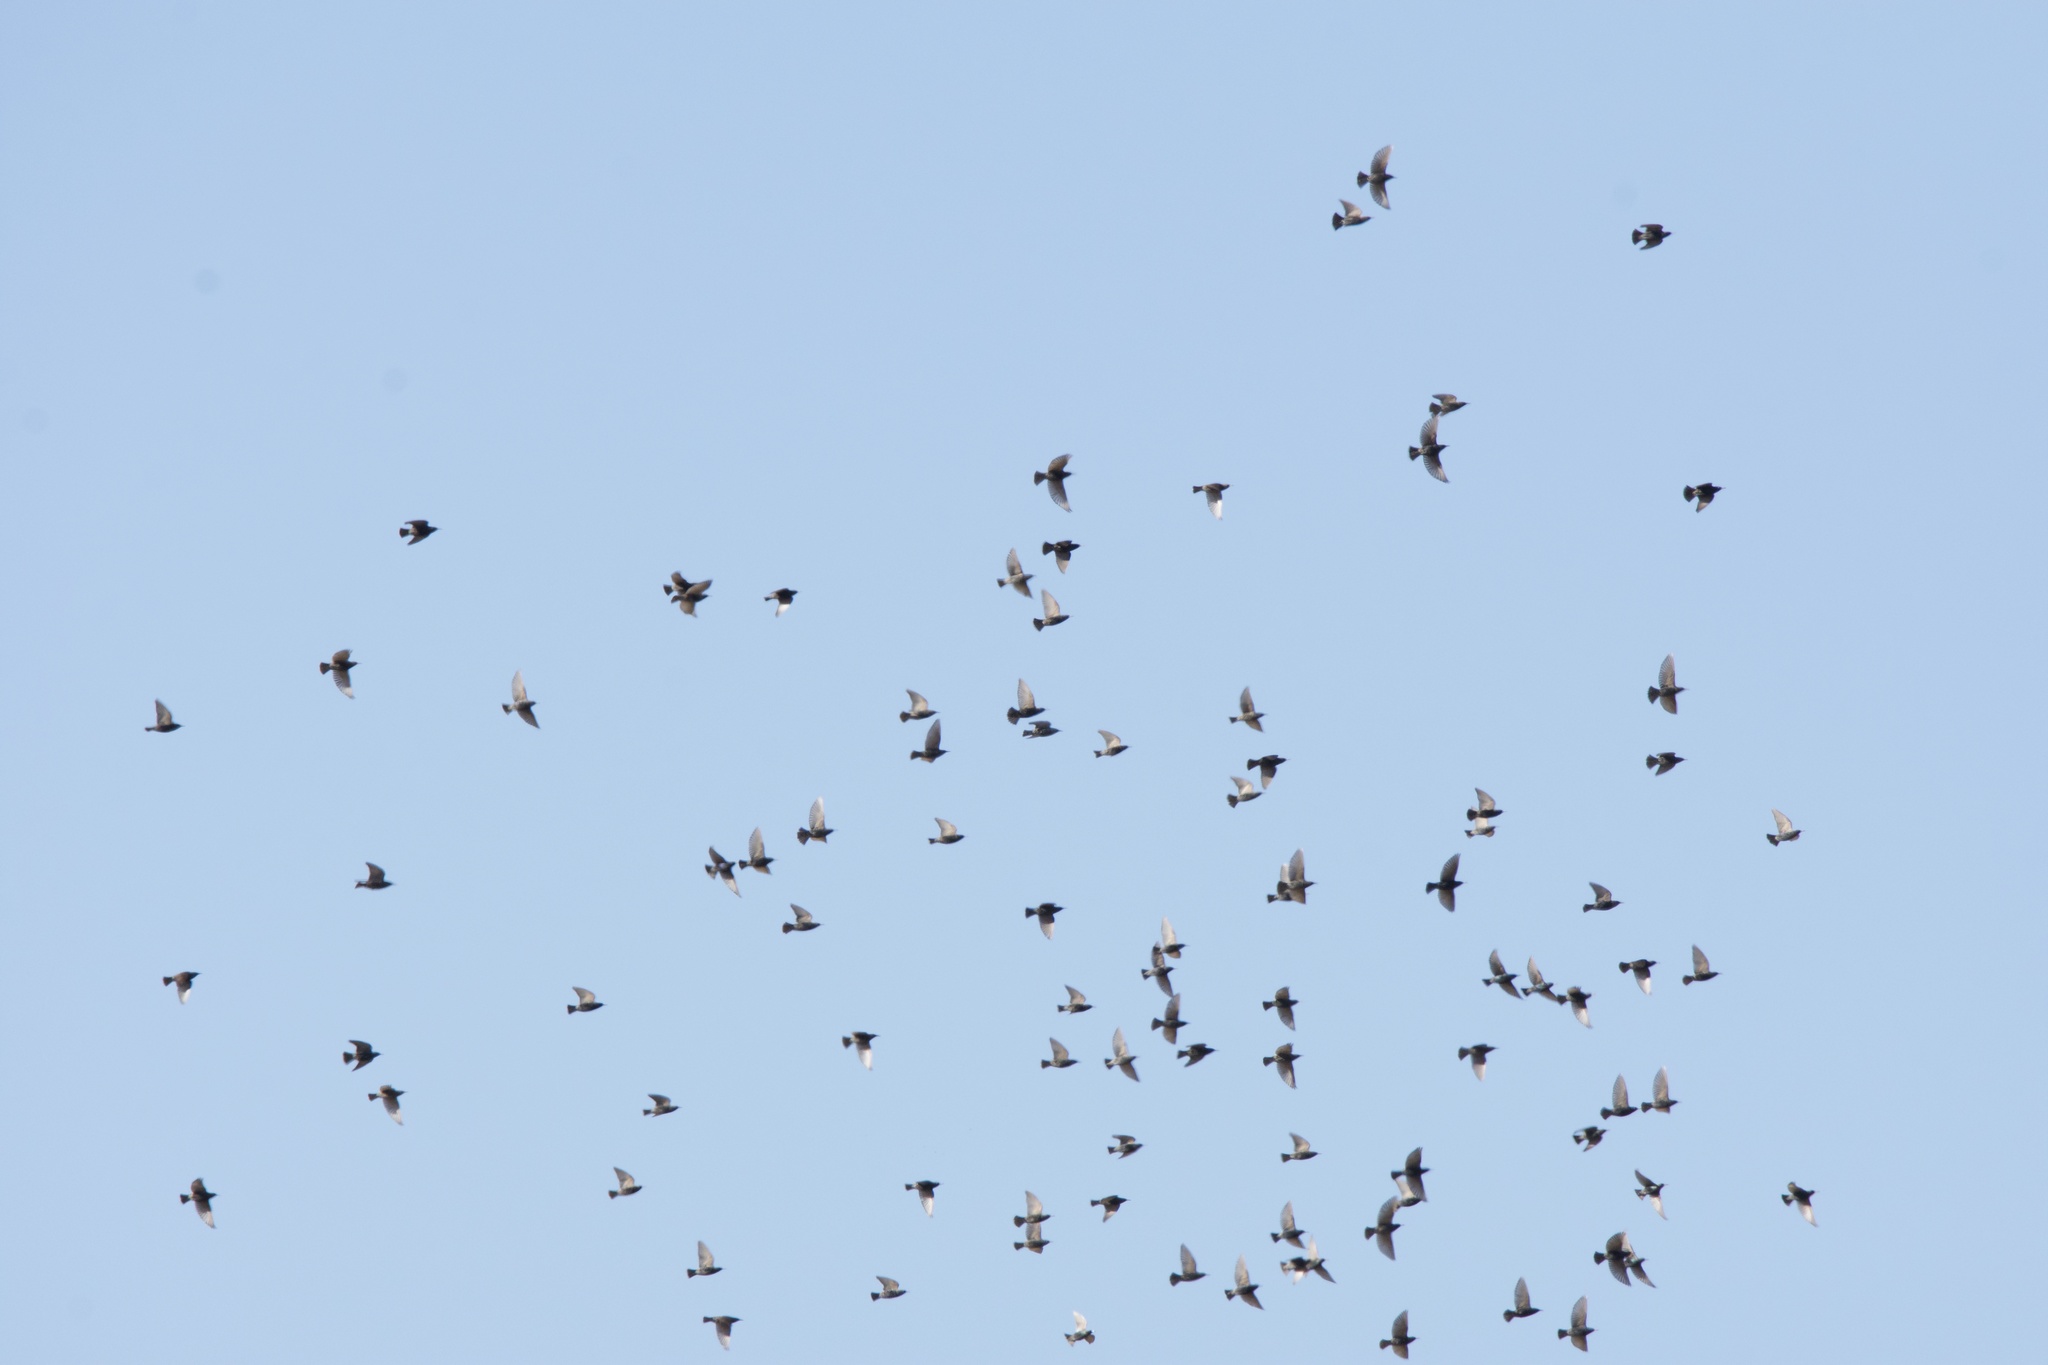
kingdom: Animalia
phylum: Chordata
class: Aves
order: Passeriformes
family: Sturnidae
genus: Sturnus
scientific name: Sturnus vulgaris
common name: Common starling
